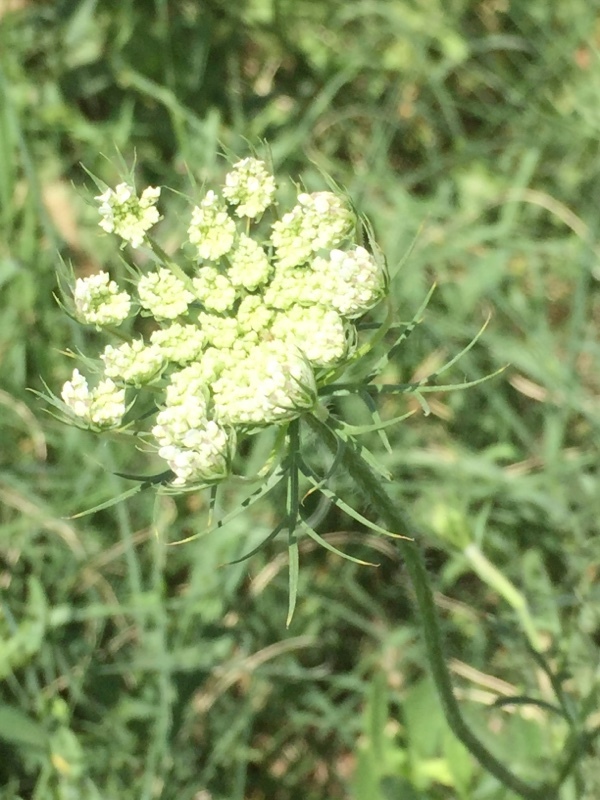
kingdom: Plantae
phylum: Tracheophyta
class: Magnoliopsida
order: Apiales
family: Apiaceae
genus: Daucus
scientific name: Daucus carota
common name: Wild carrot
